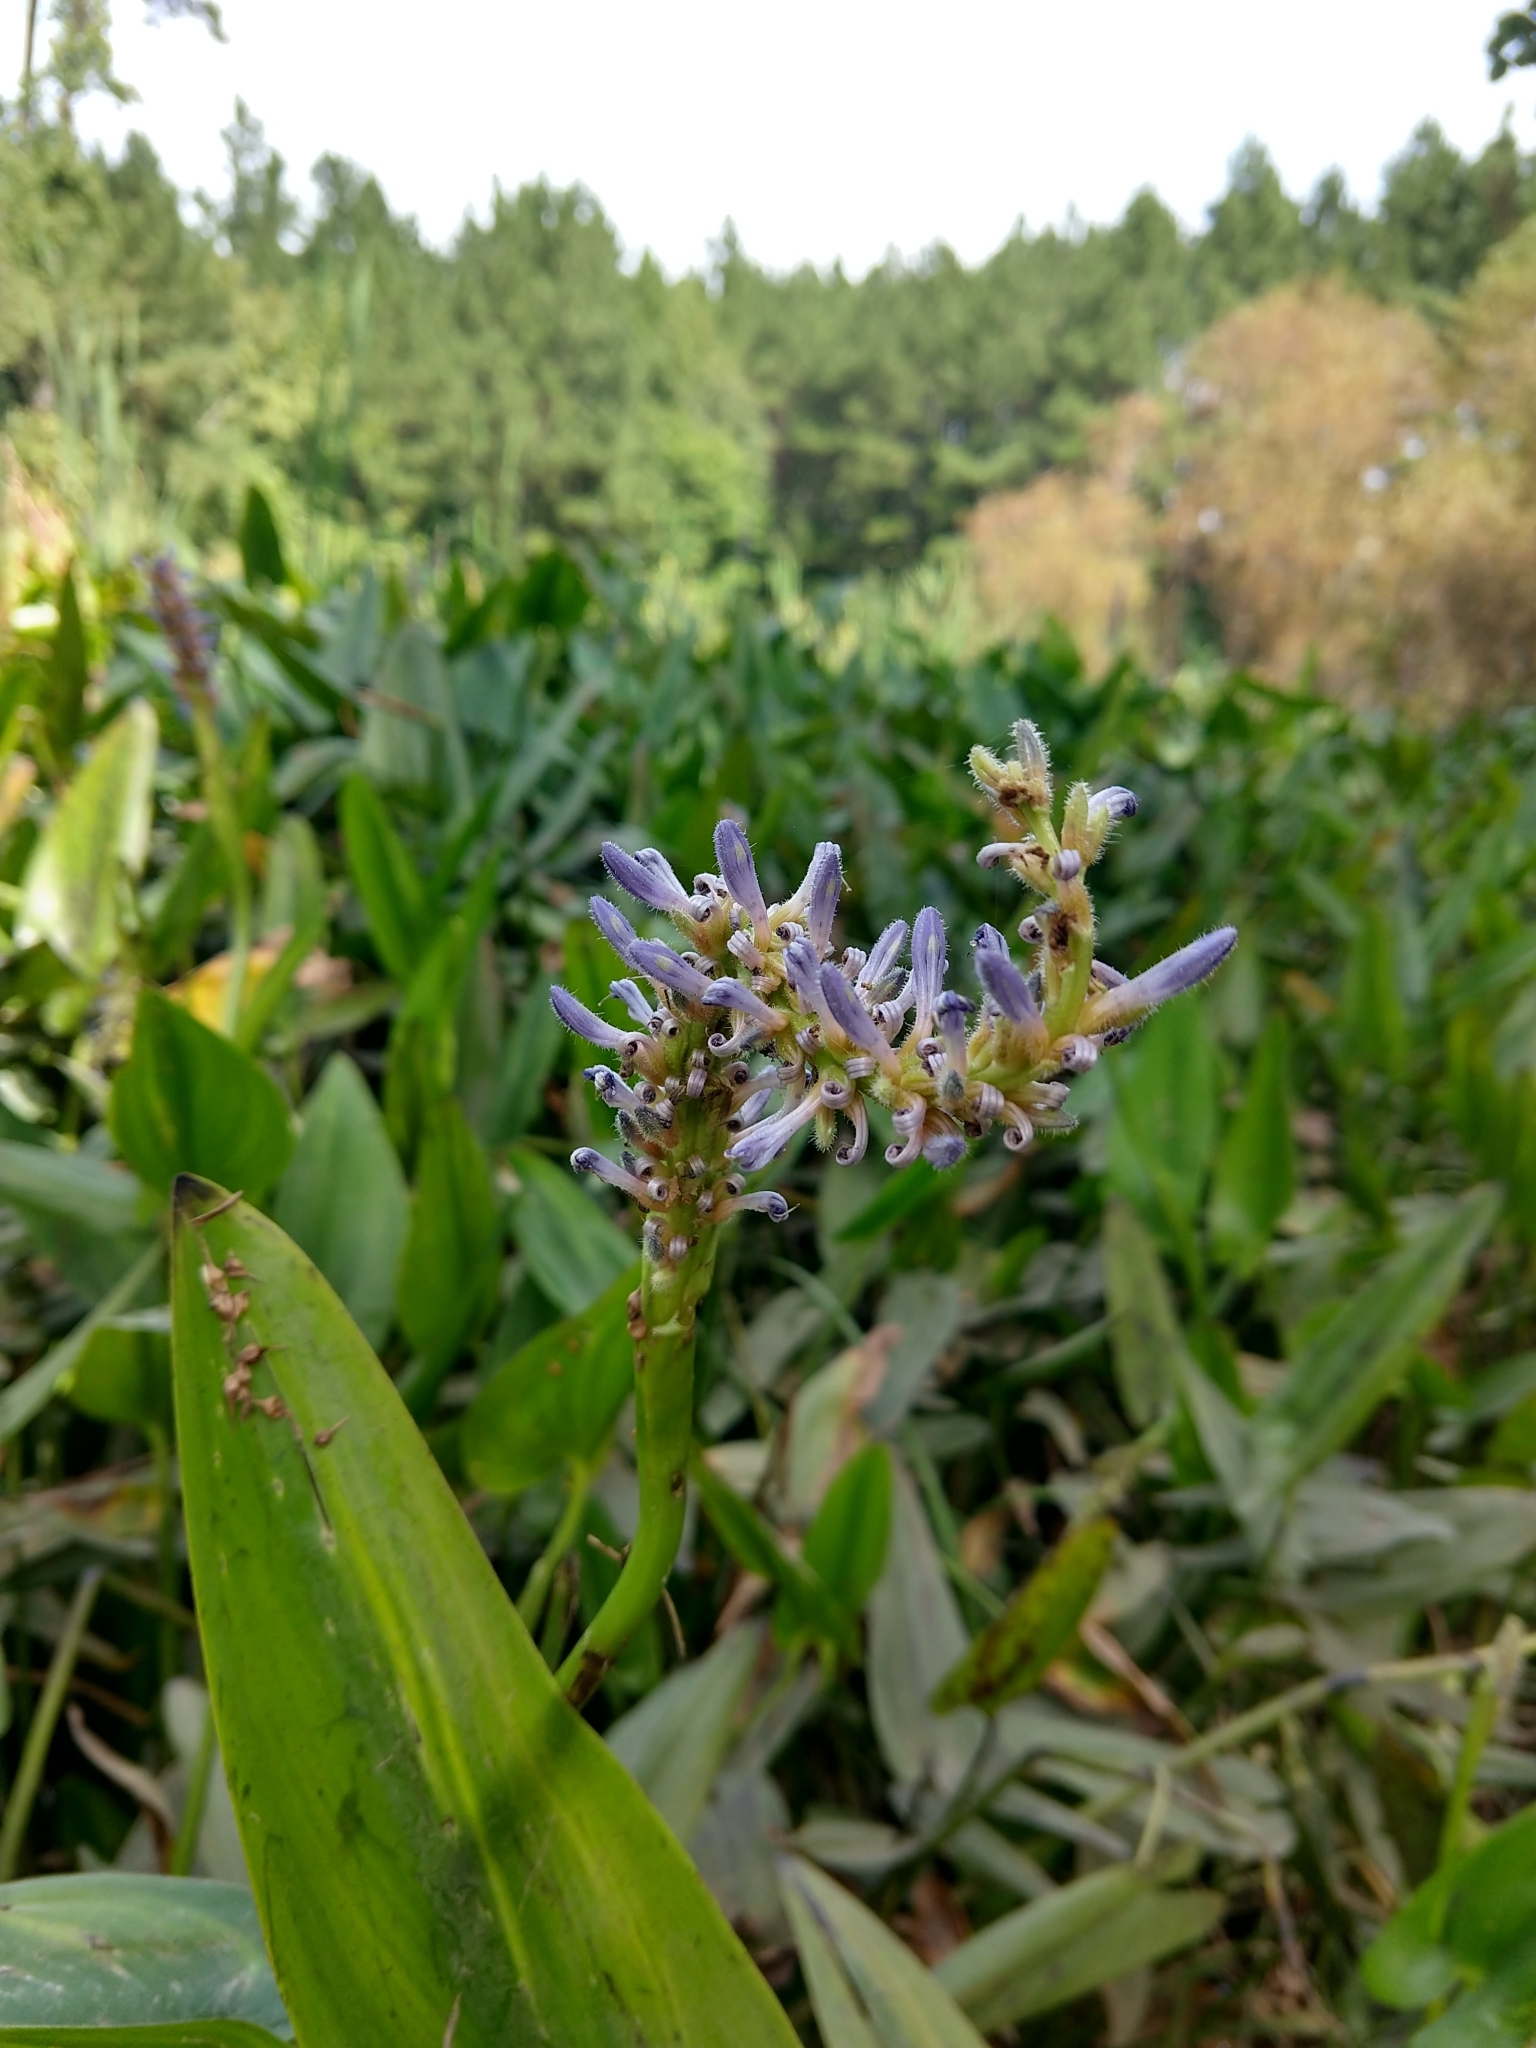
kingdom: Plantae
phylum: Tracheophyta
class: Liliopsida
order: Commelinales
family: Pontederiaceae
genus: Pontederia
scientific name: Pontederia cordata
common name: Pickerelweed
